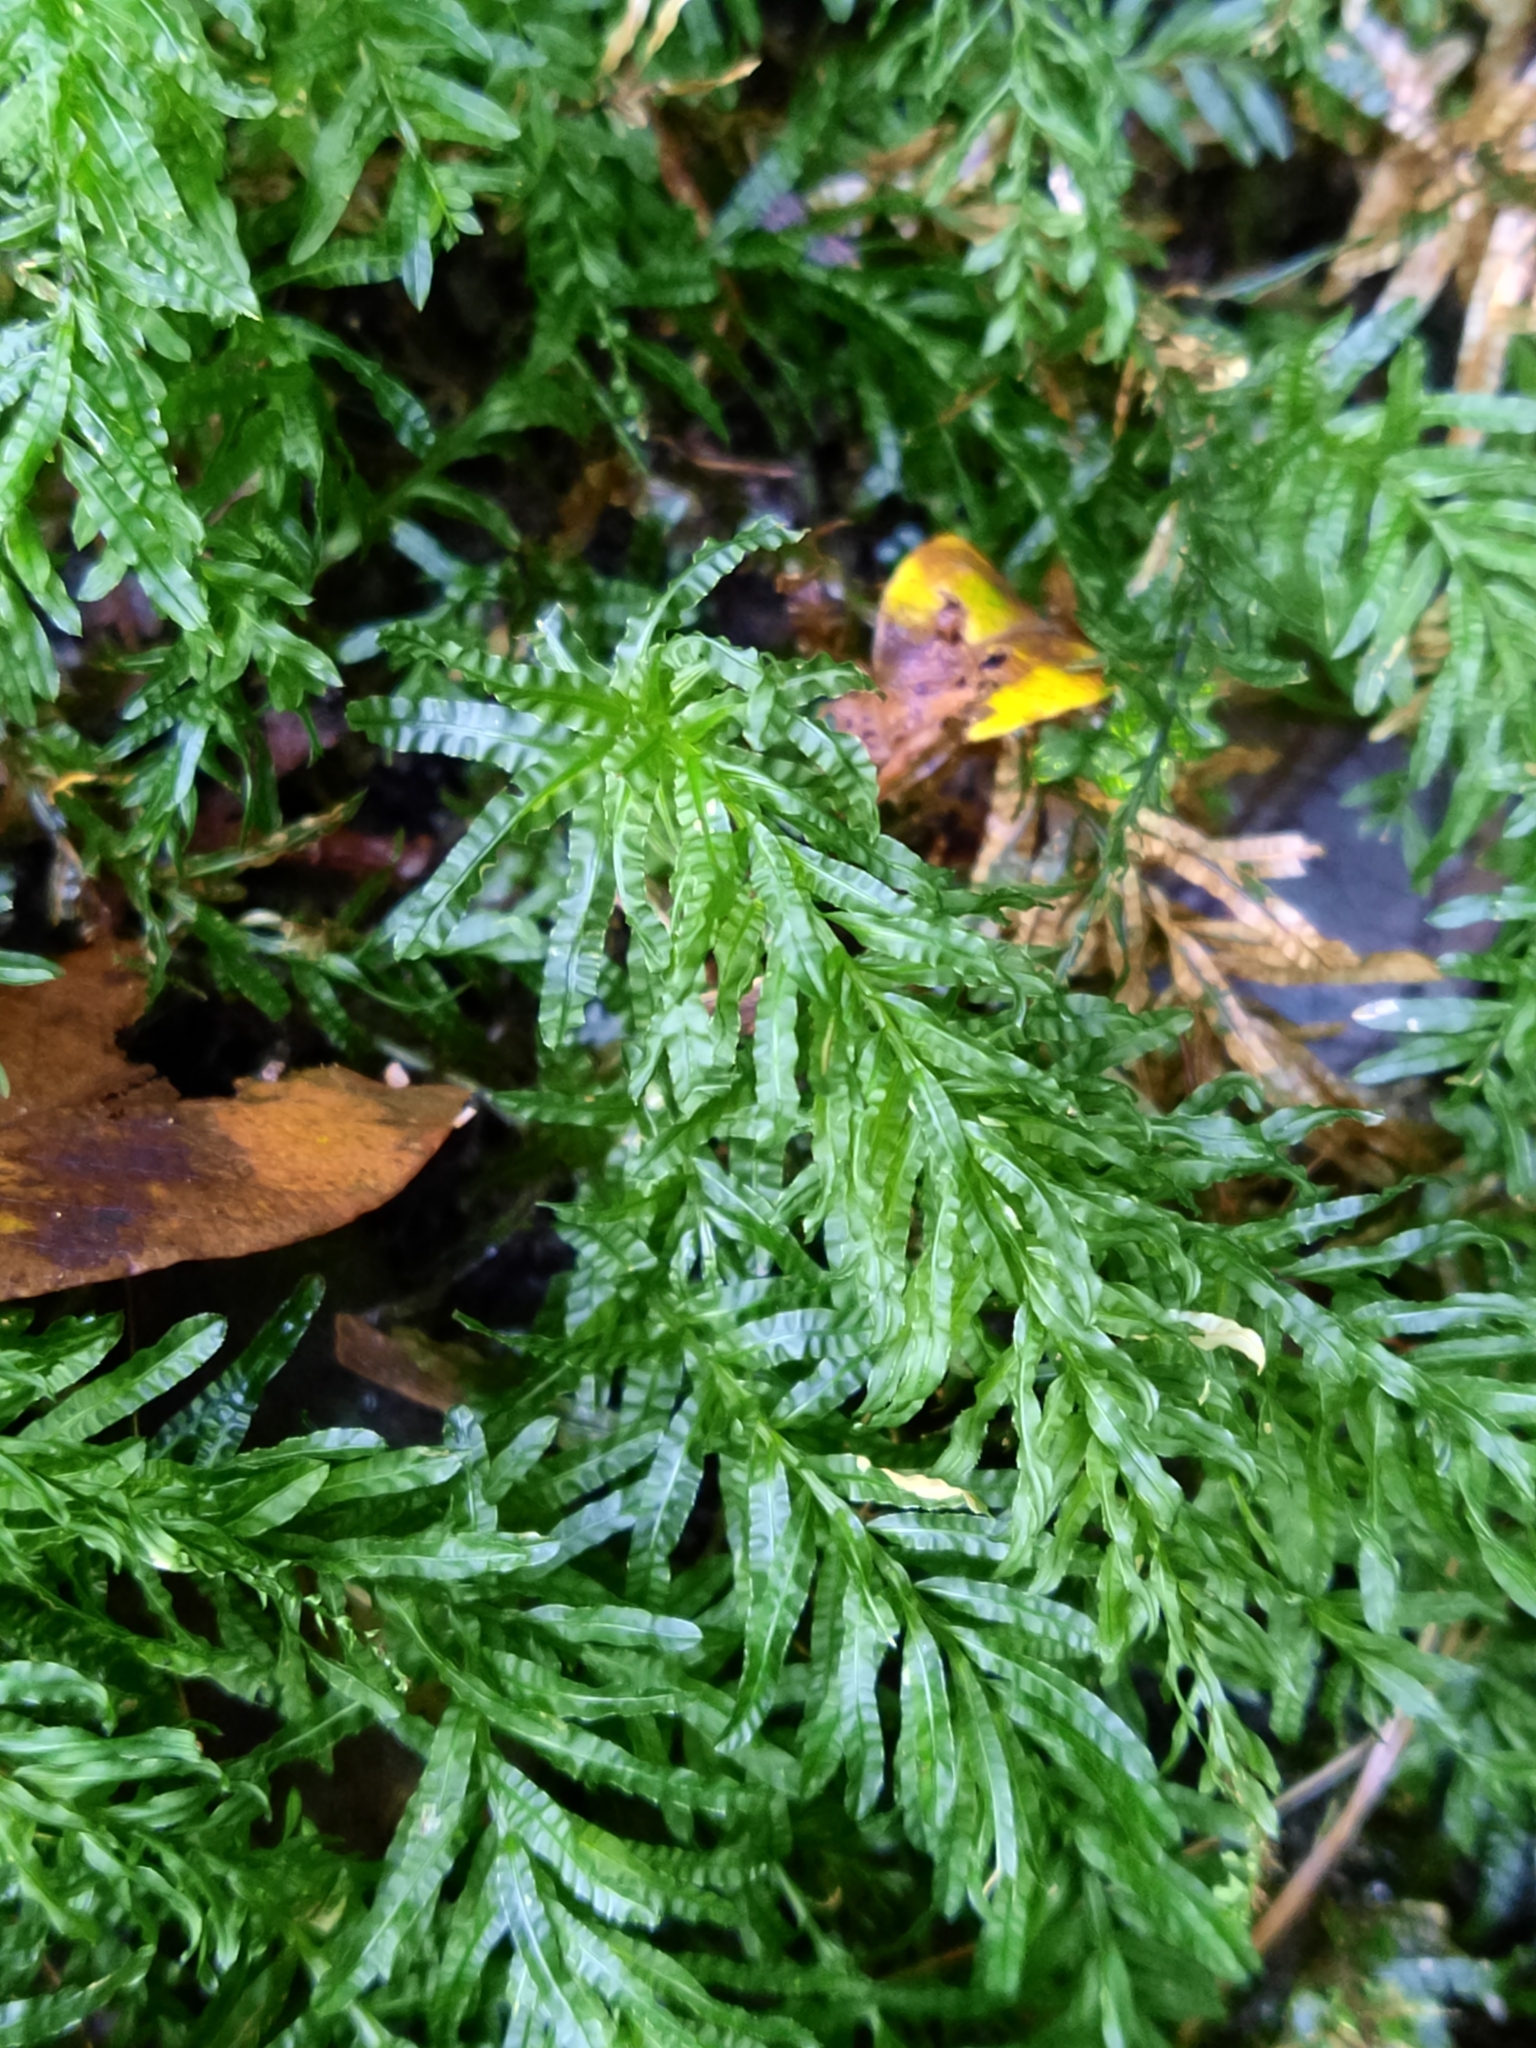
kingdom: Plantae
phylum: Bryophyta
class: Bryopsida
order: Bryales
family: Mniaceae
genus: Plagiomnium
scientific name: Plagiomnium undulatum
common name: Hart's-tongue thyme-moss
